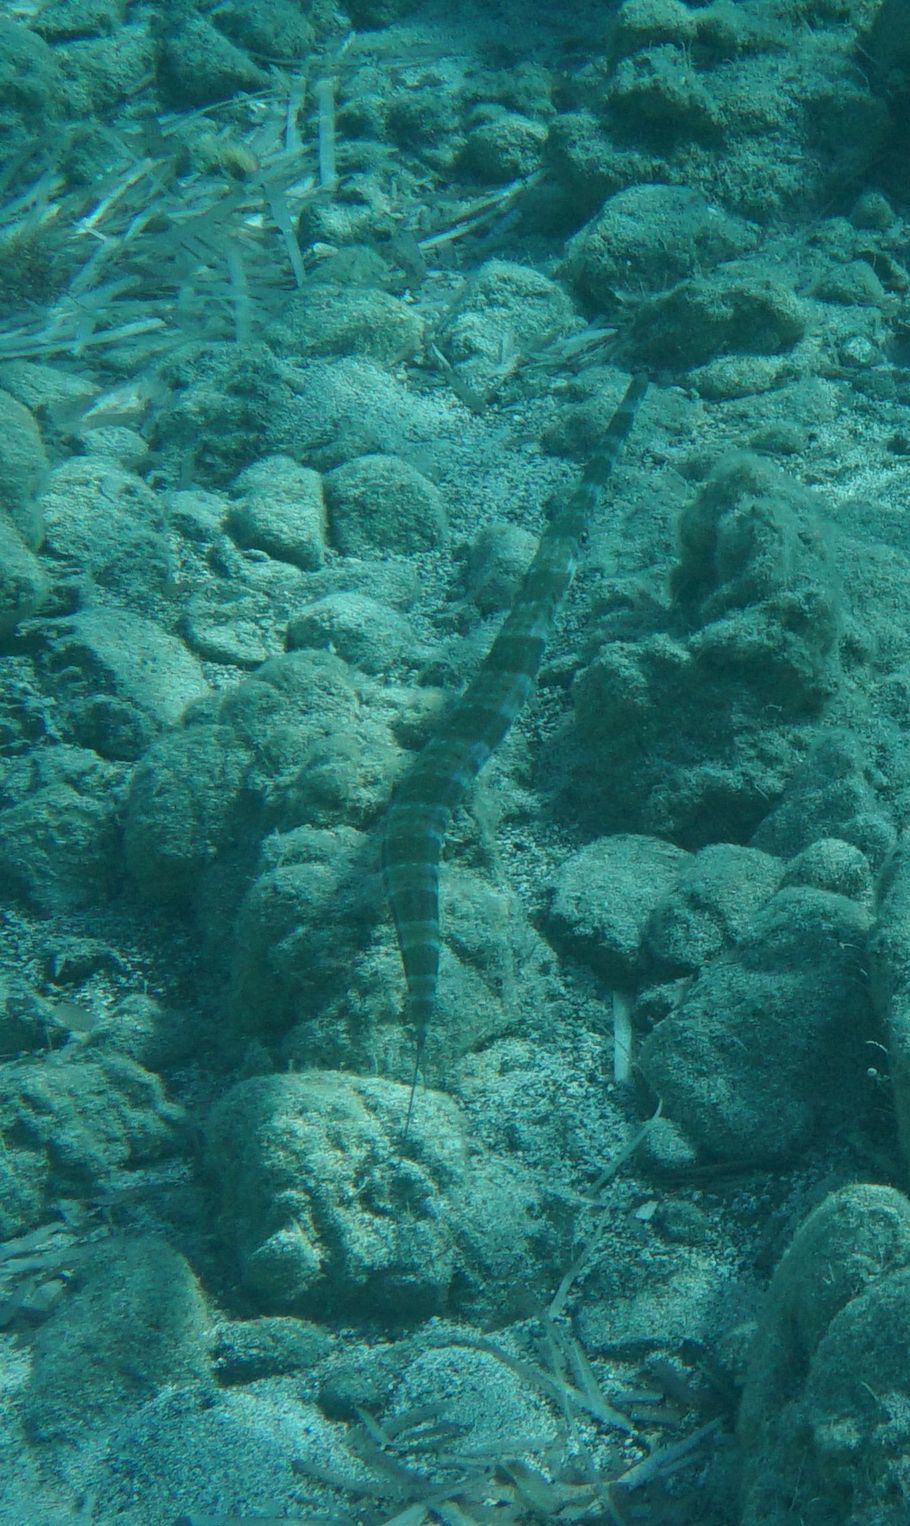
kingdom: Animalia
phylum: Chordata
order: Syngnathiformes
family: Fistulariidae
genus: Fistularia
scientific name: Fistularia commersonii
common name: Bluespotted cornetfish
